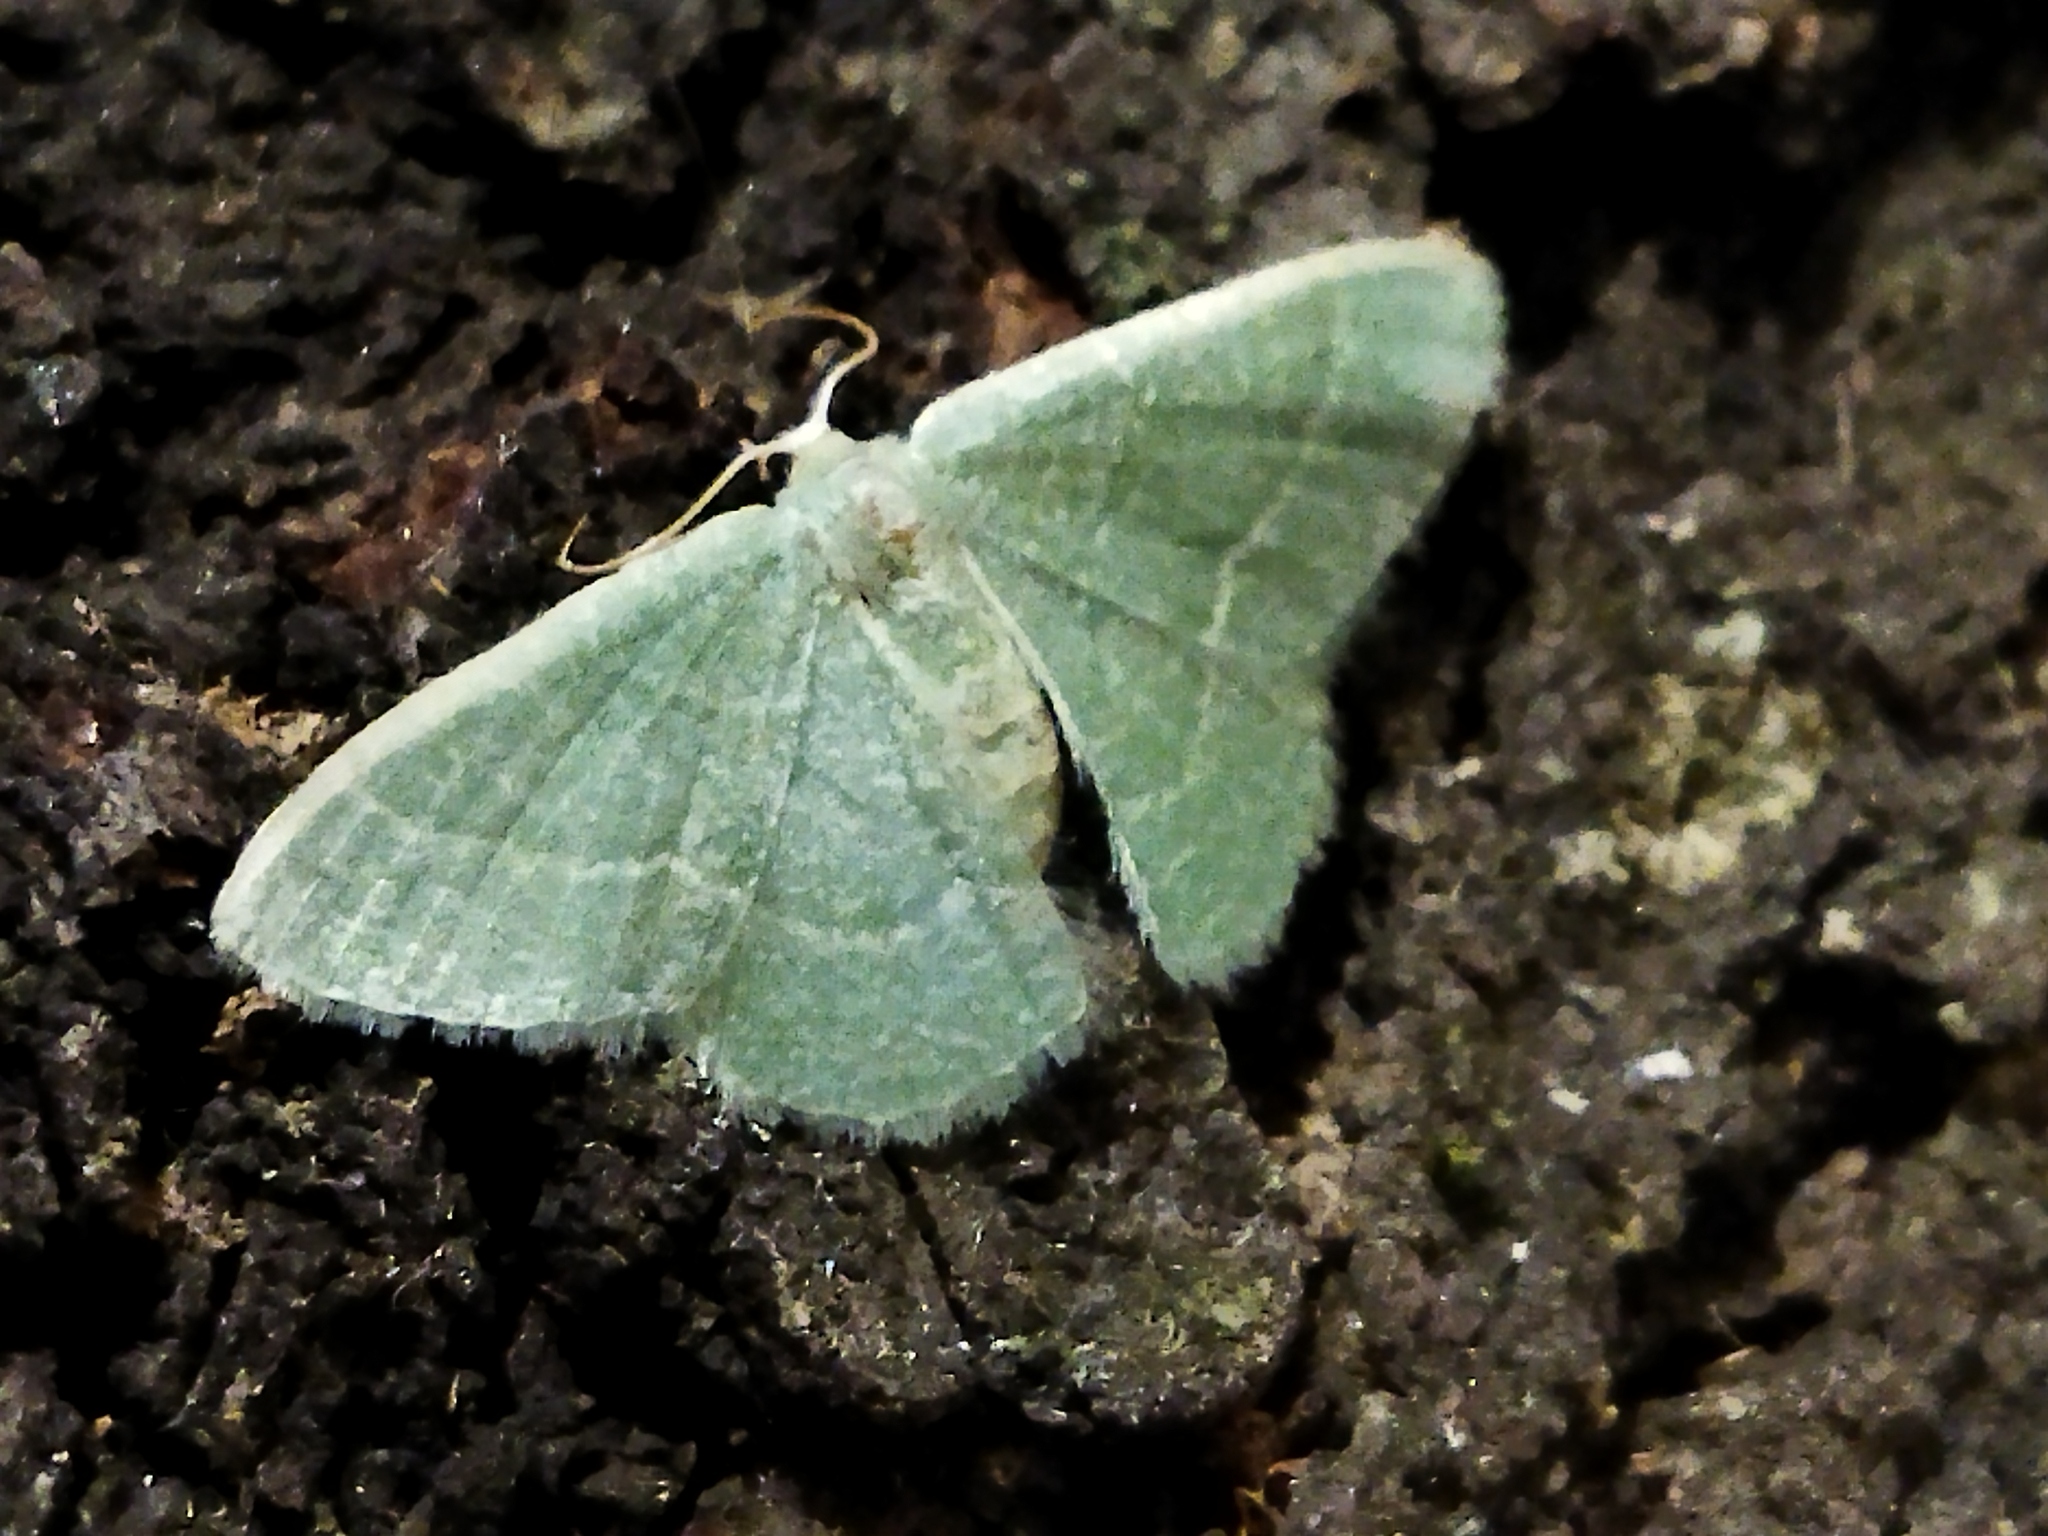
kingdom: Animalia
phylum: Arthropoda
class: Insecta
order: Lepidoptera
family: Geometridae
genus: Chlorissa
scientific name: Chlorissa etruscaria
